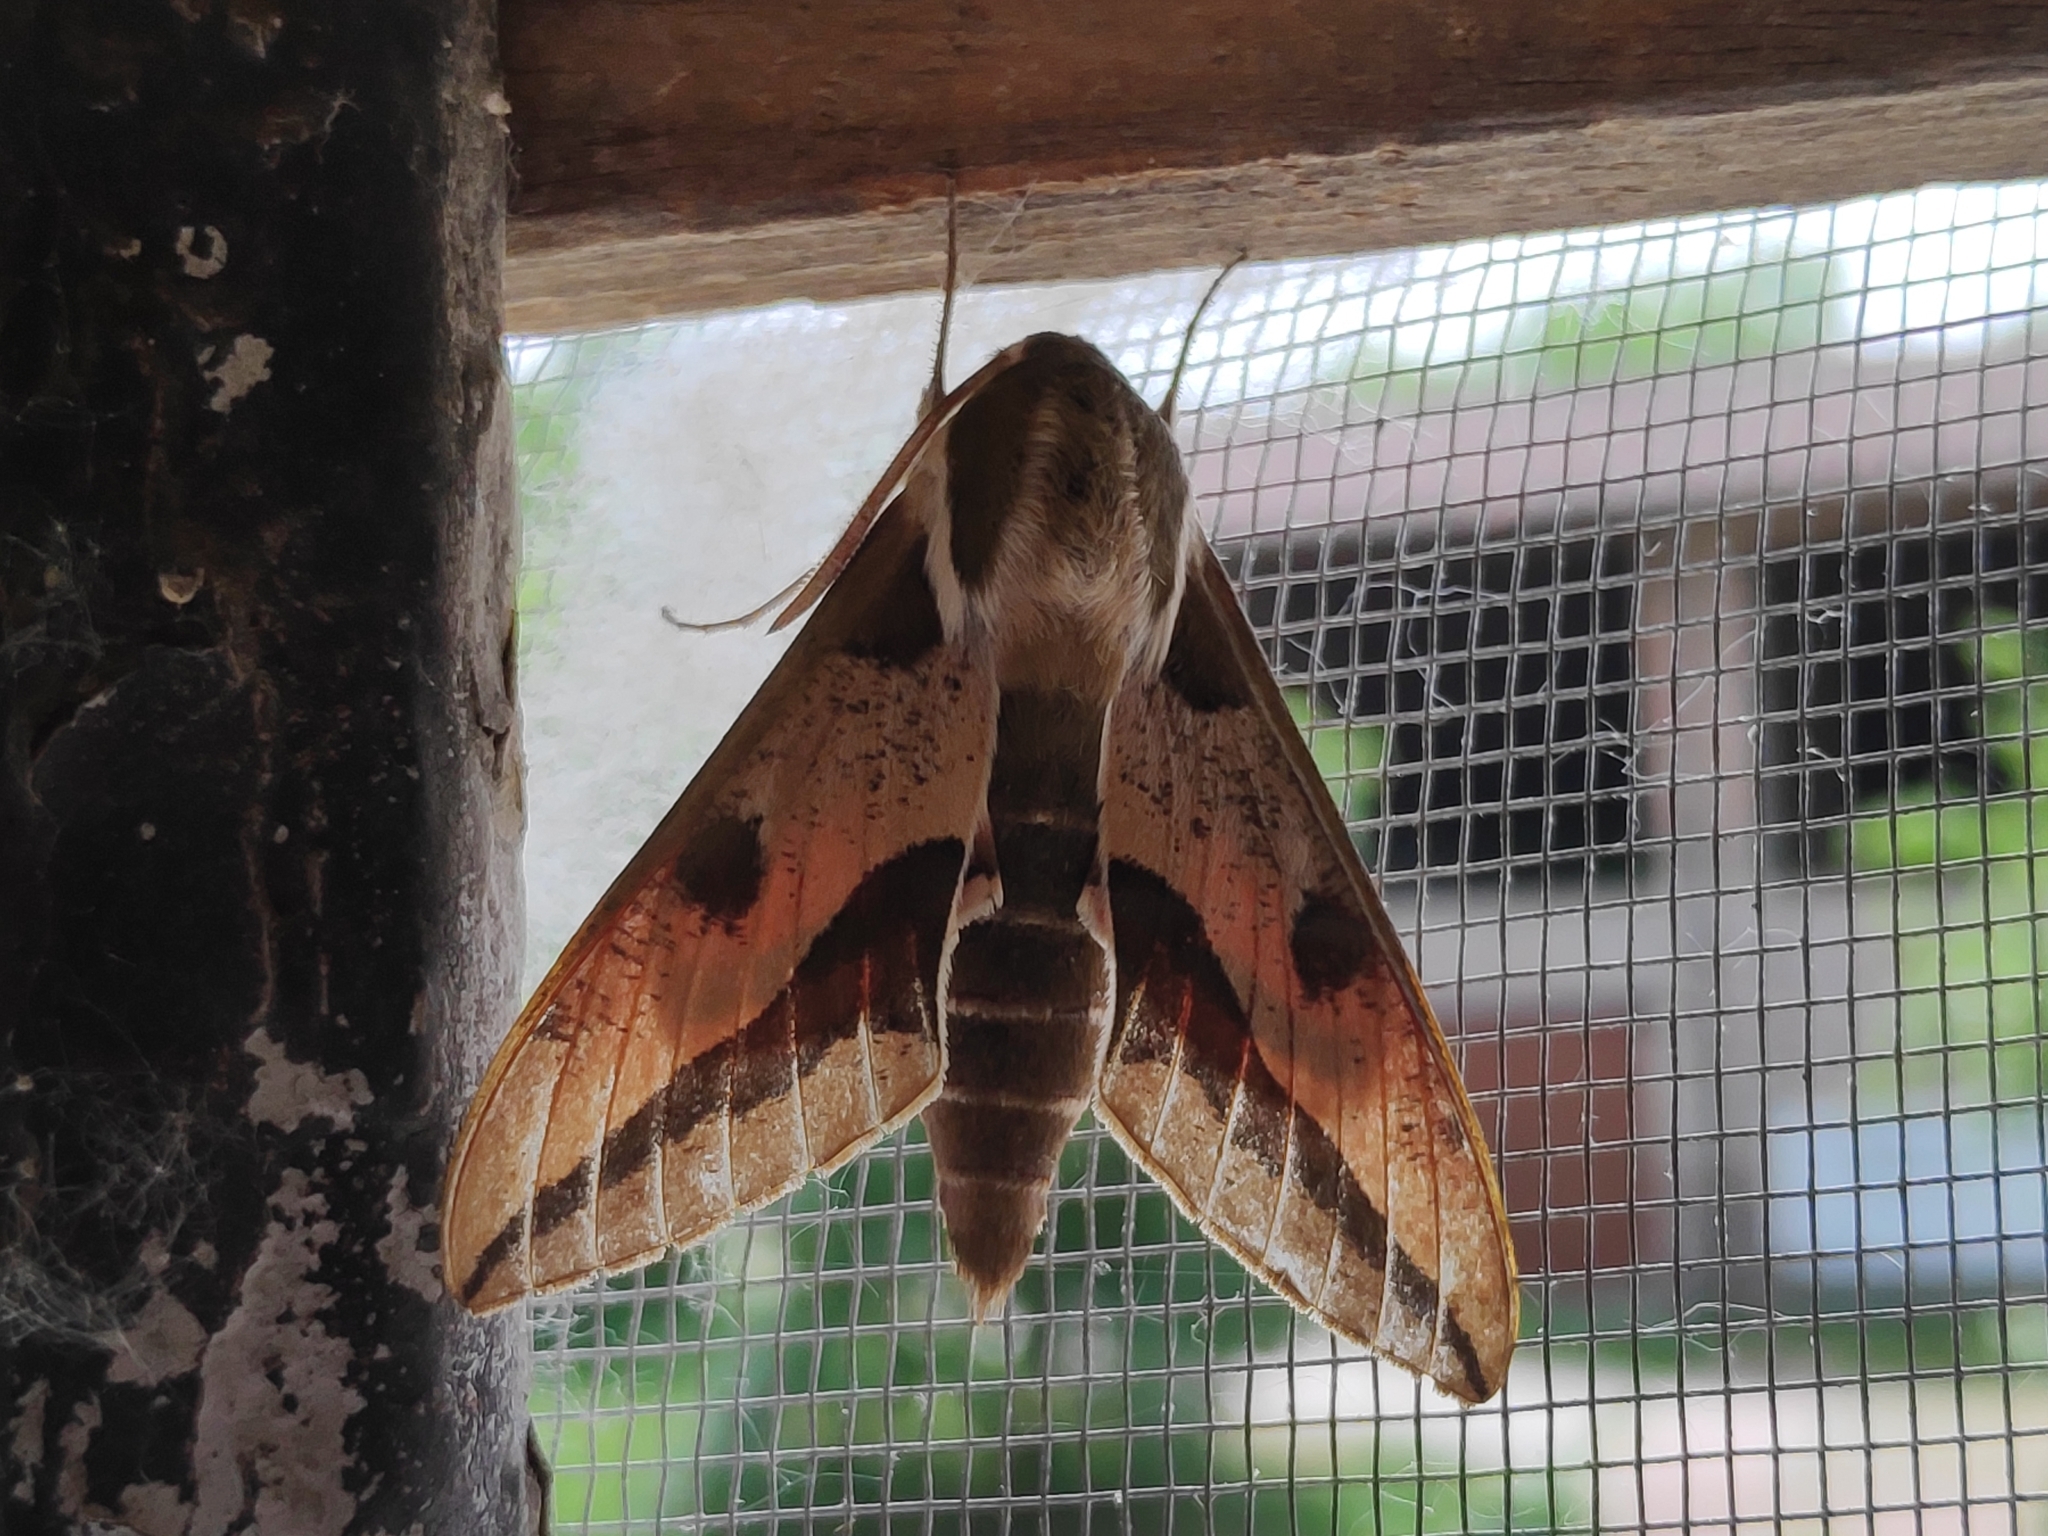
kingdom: Animalia
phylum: Arthropoda
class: Insecta
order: Lepidoptera
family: Sphingidae
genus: Hyles
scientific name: Hyles euphorbiae
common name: Spurge hawk-moth
